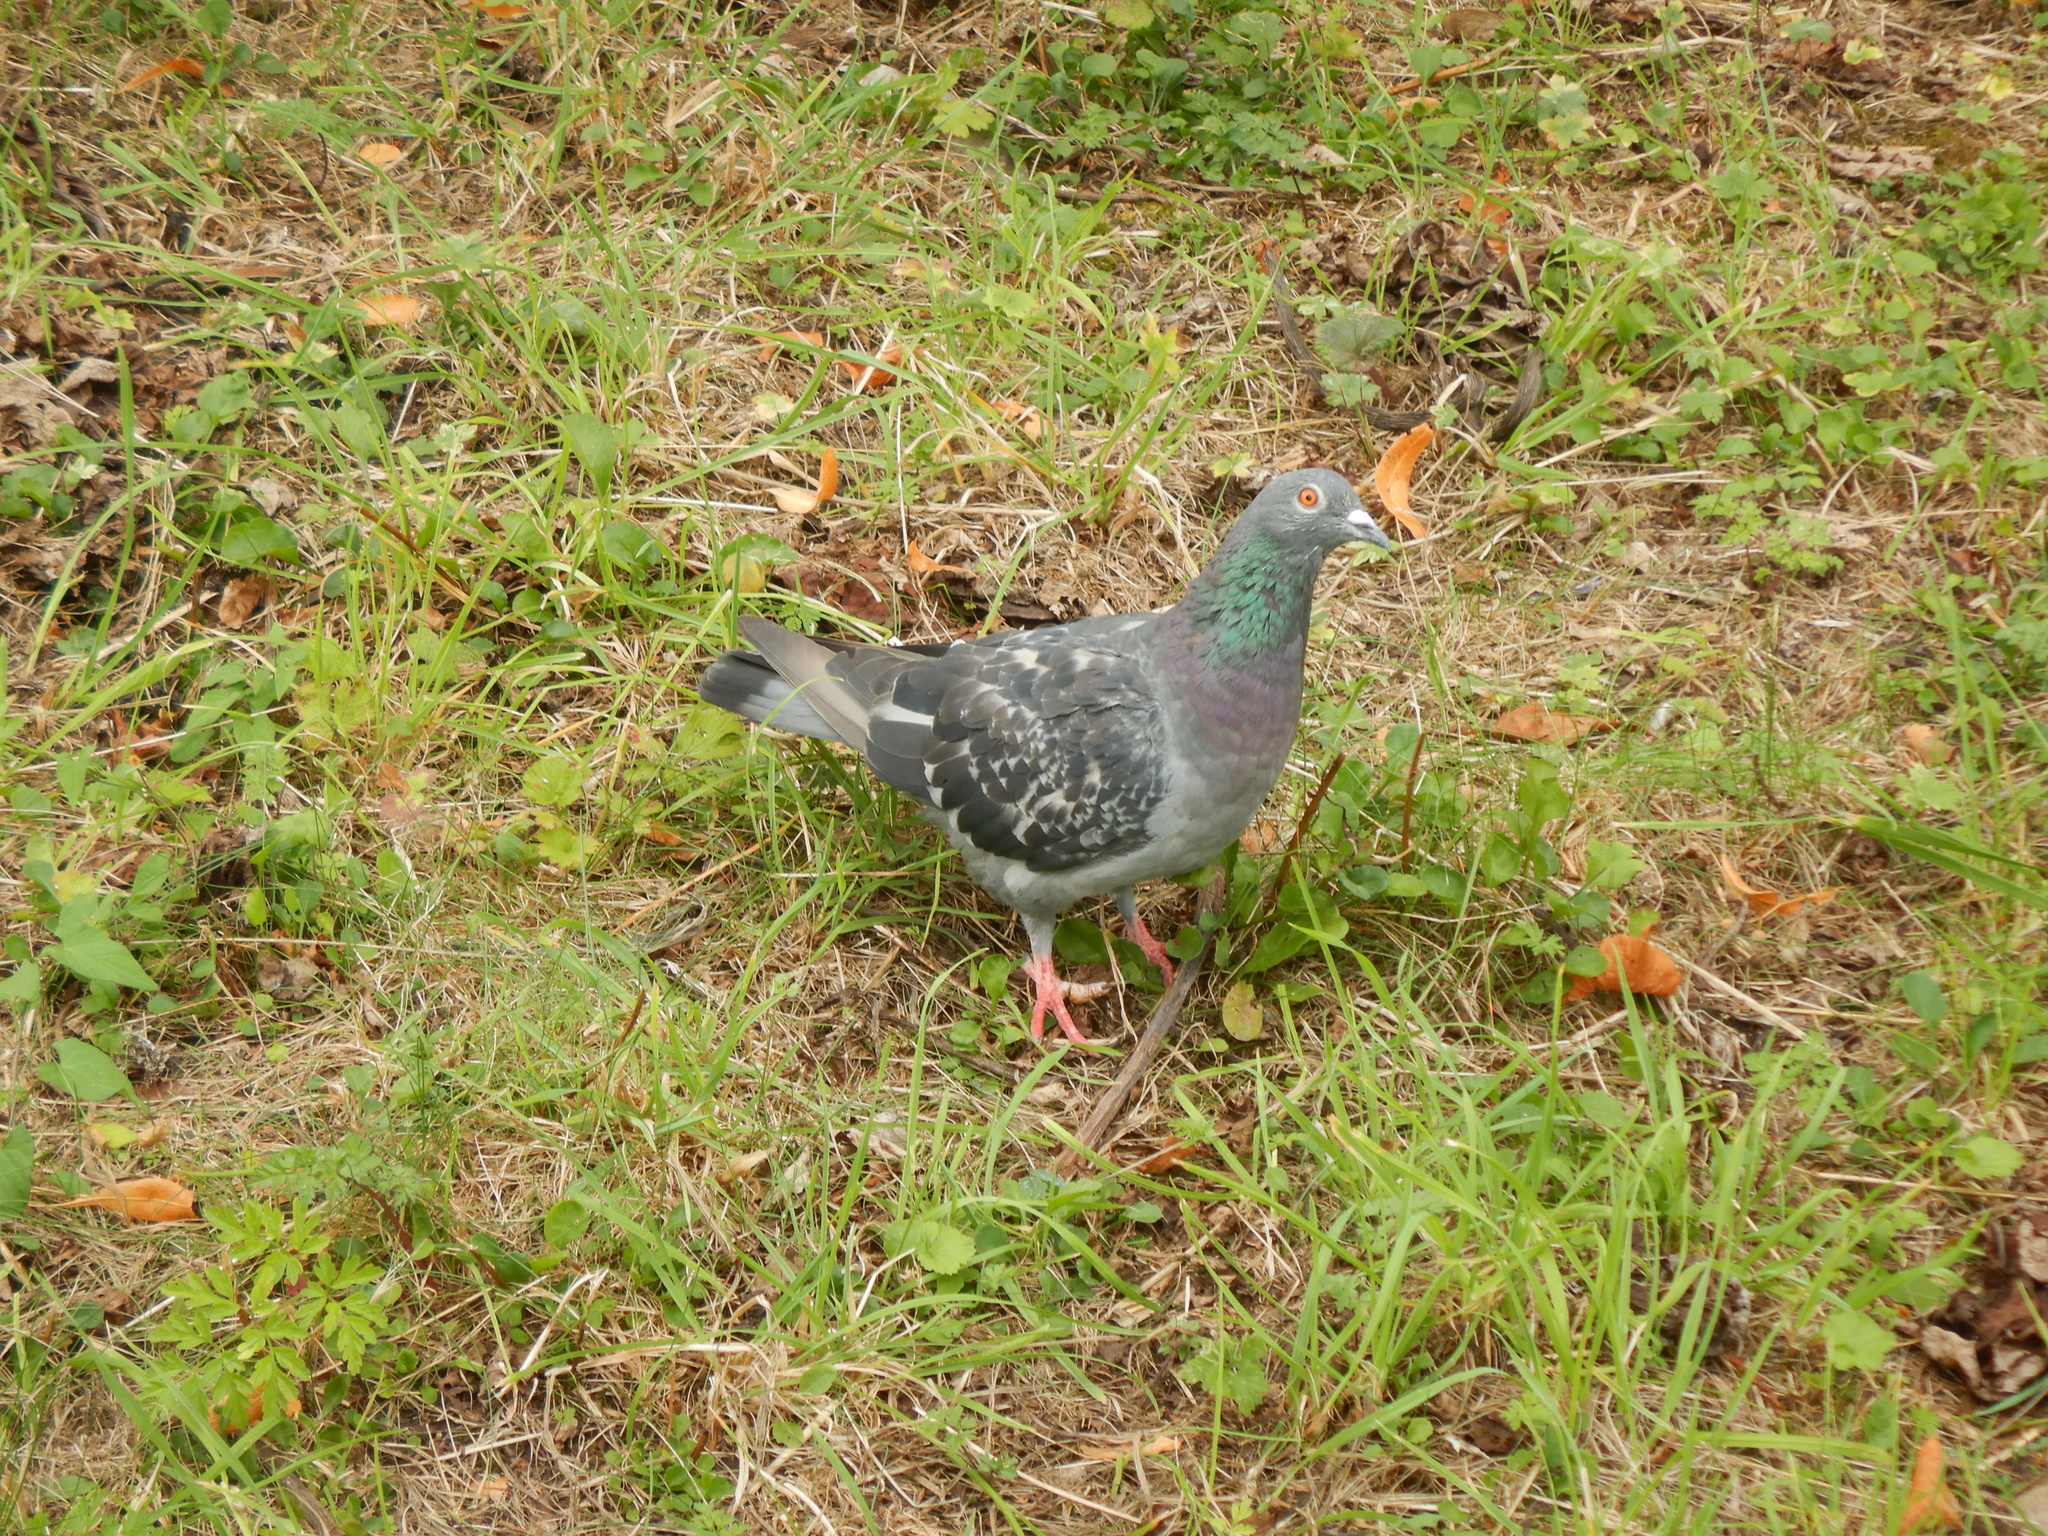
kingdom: Animalia
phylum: Chordata
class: Aves
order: Columbiformes
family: Columbidae
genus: Columba
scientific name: Columba livia
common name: Rock pigeon
